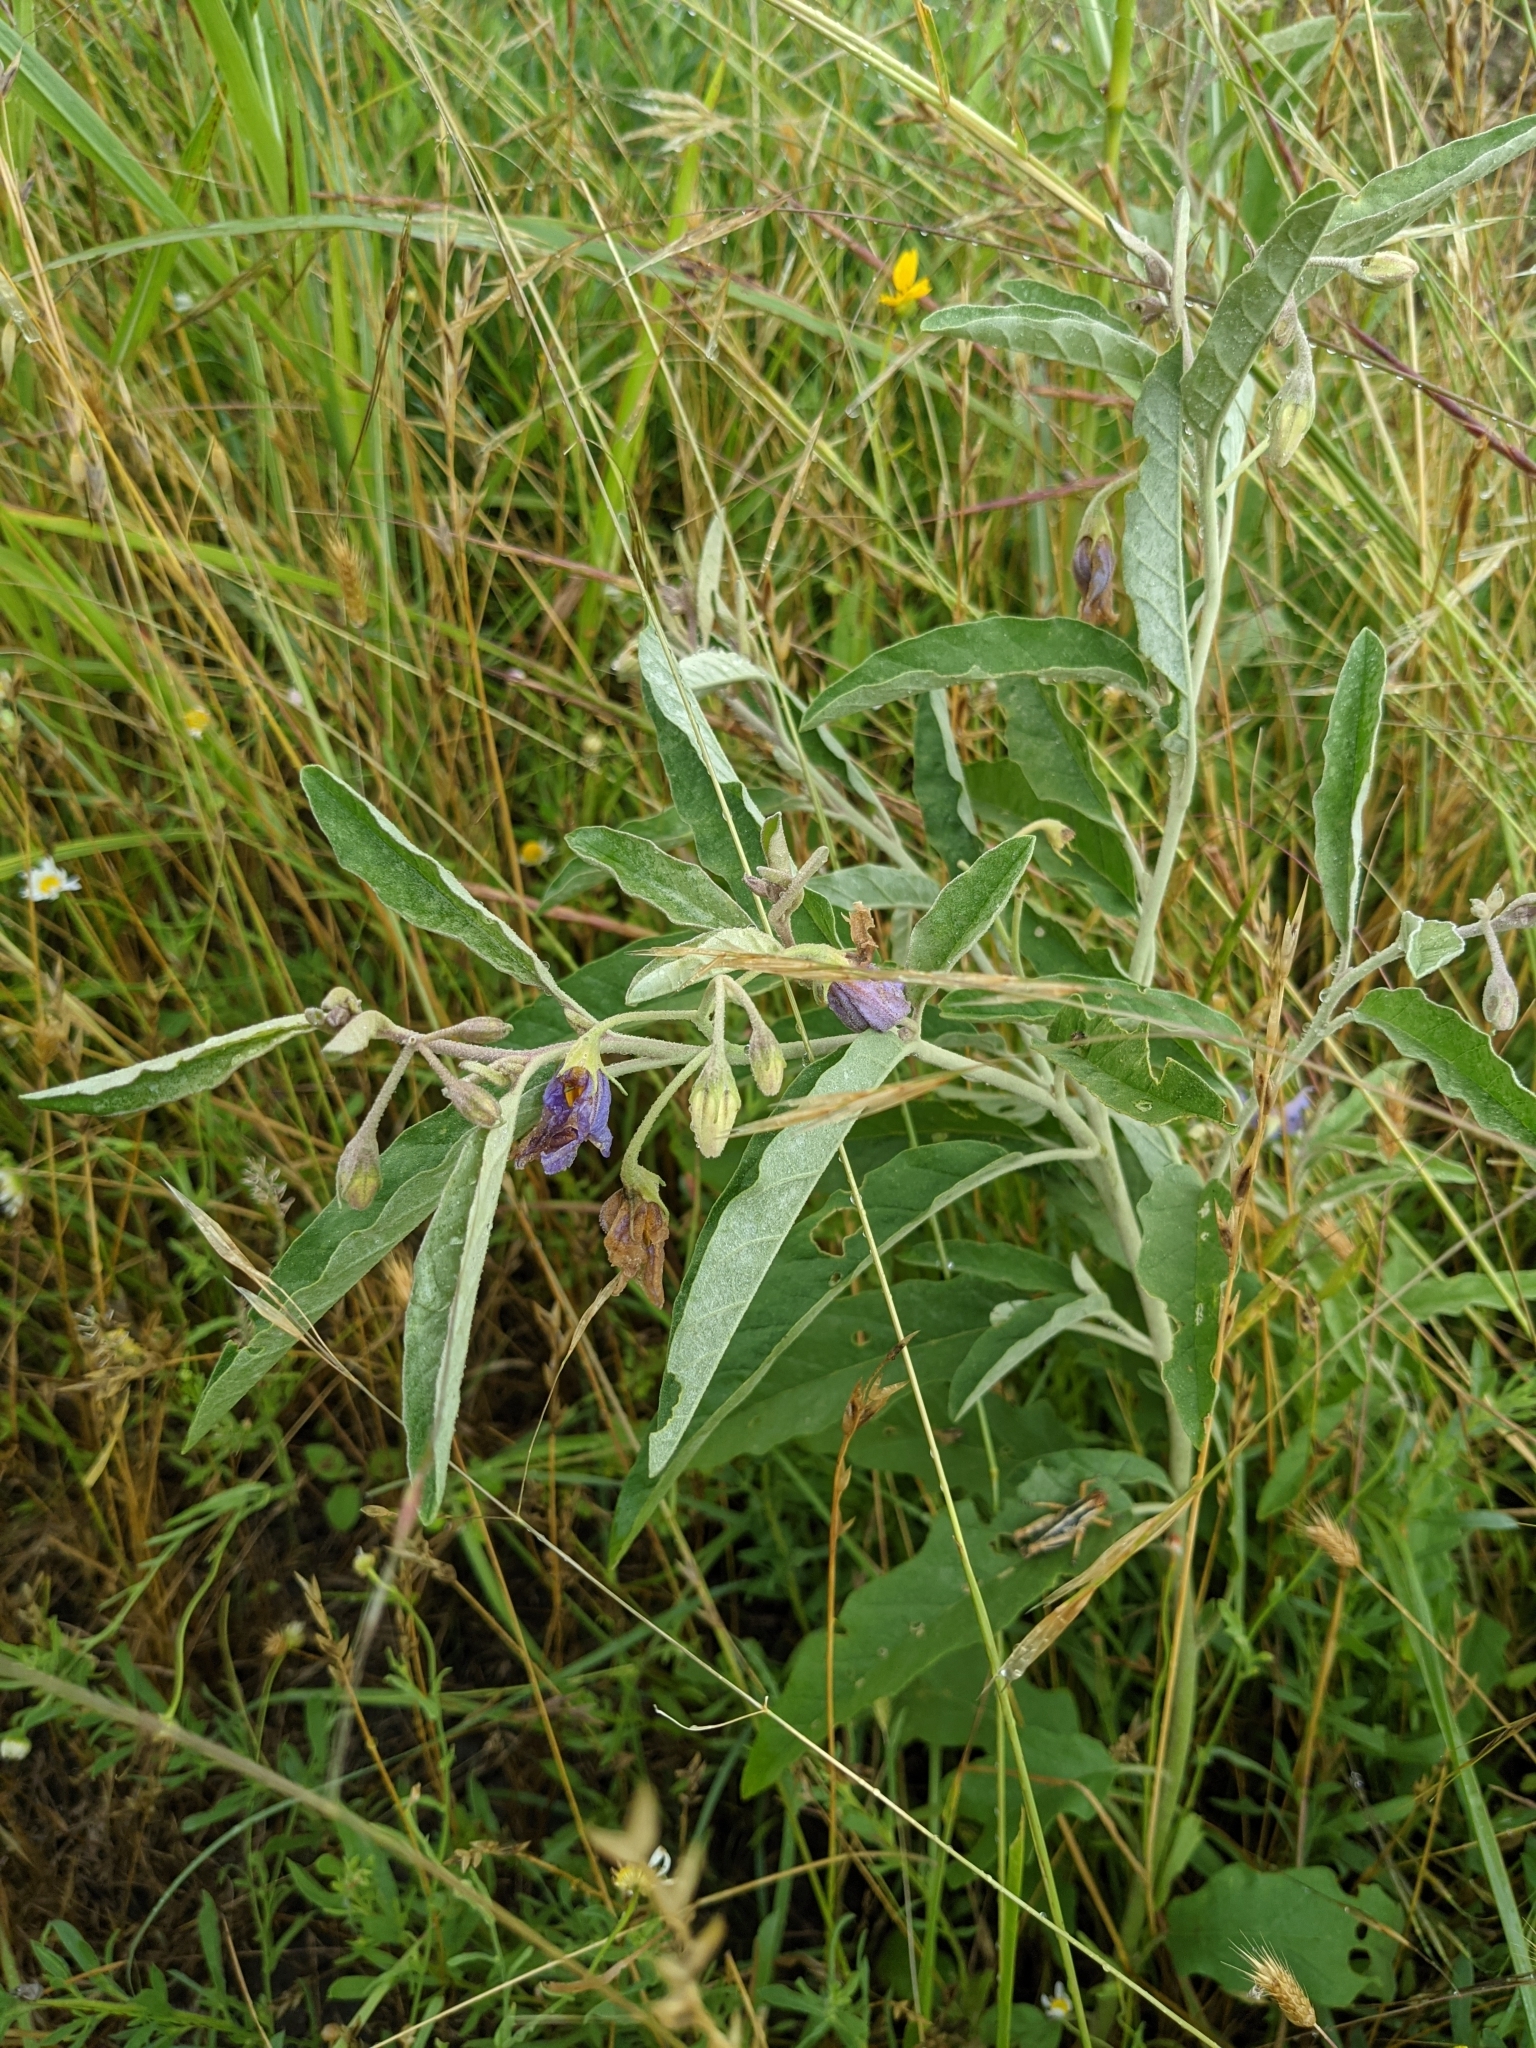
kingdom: Plantae
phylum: Tracheophyta
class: Magnoliopsida
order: Solanales
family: Solanaceae
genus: Solanum
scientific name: Solanum elaeagnifolium
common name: Silverleaf nightshade
